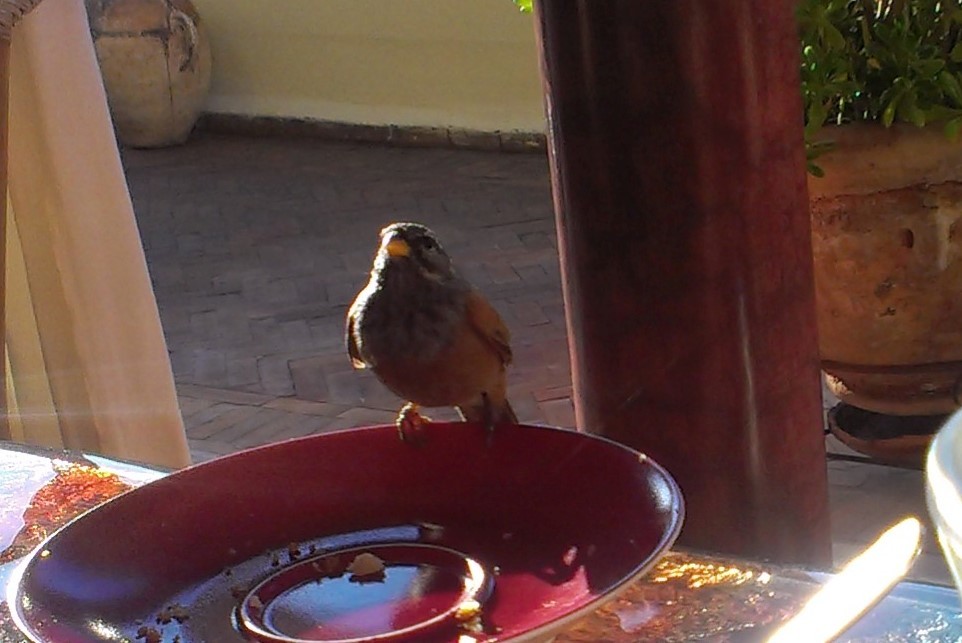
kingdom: Animalia
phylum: Chordata
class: Aves
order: Passeriformes
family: Emberizidae
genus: Emberiza
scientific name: Emberiza sahari
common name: House bunting
